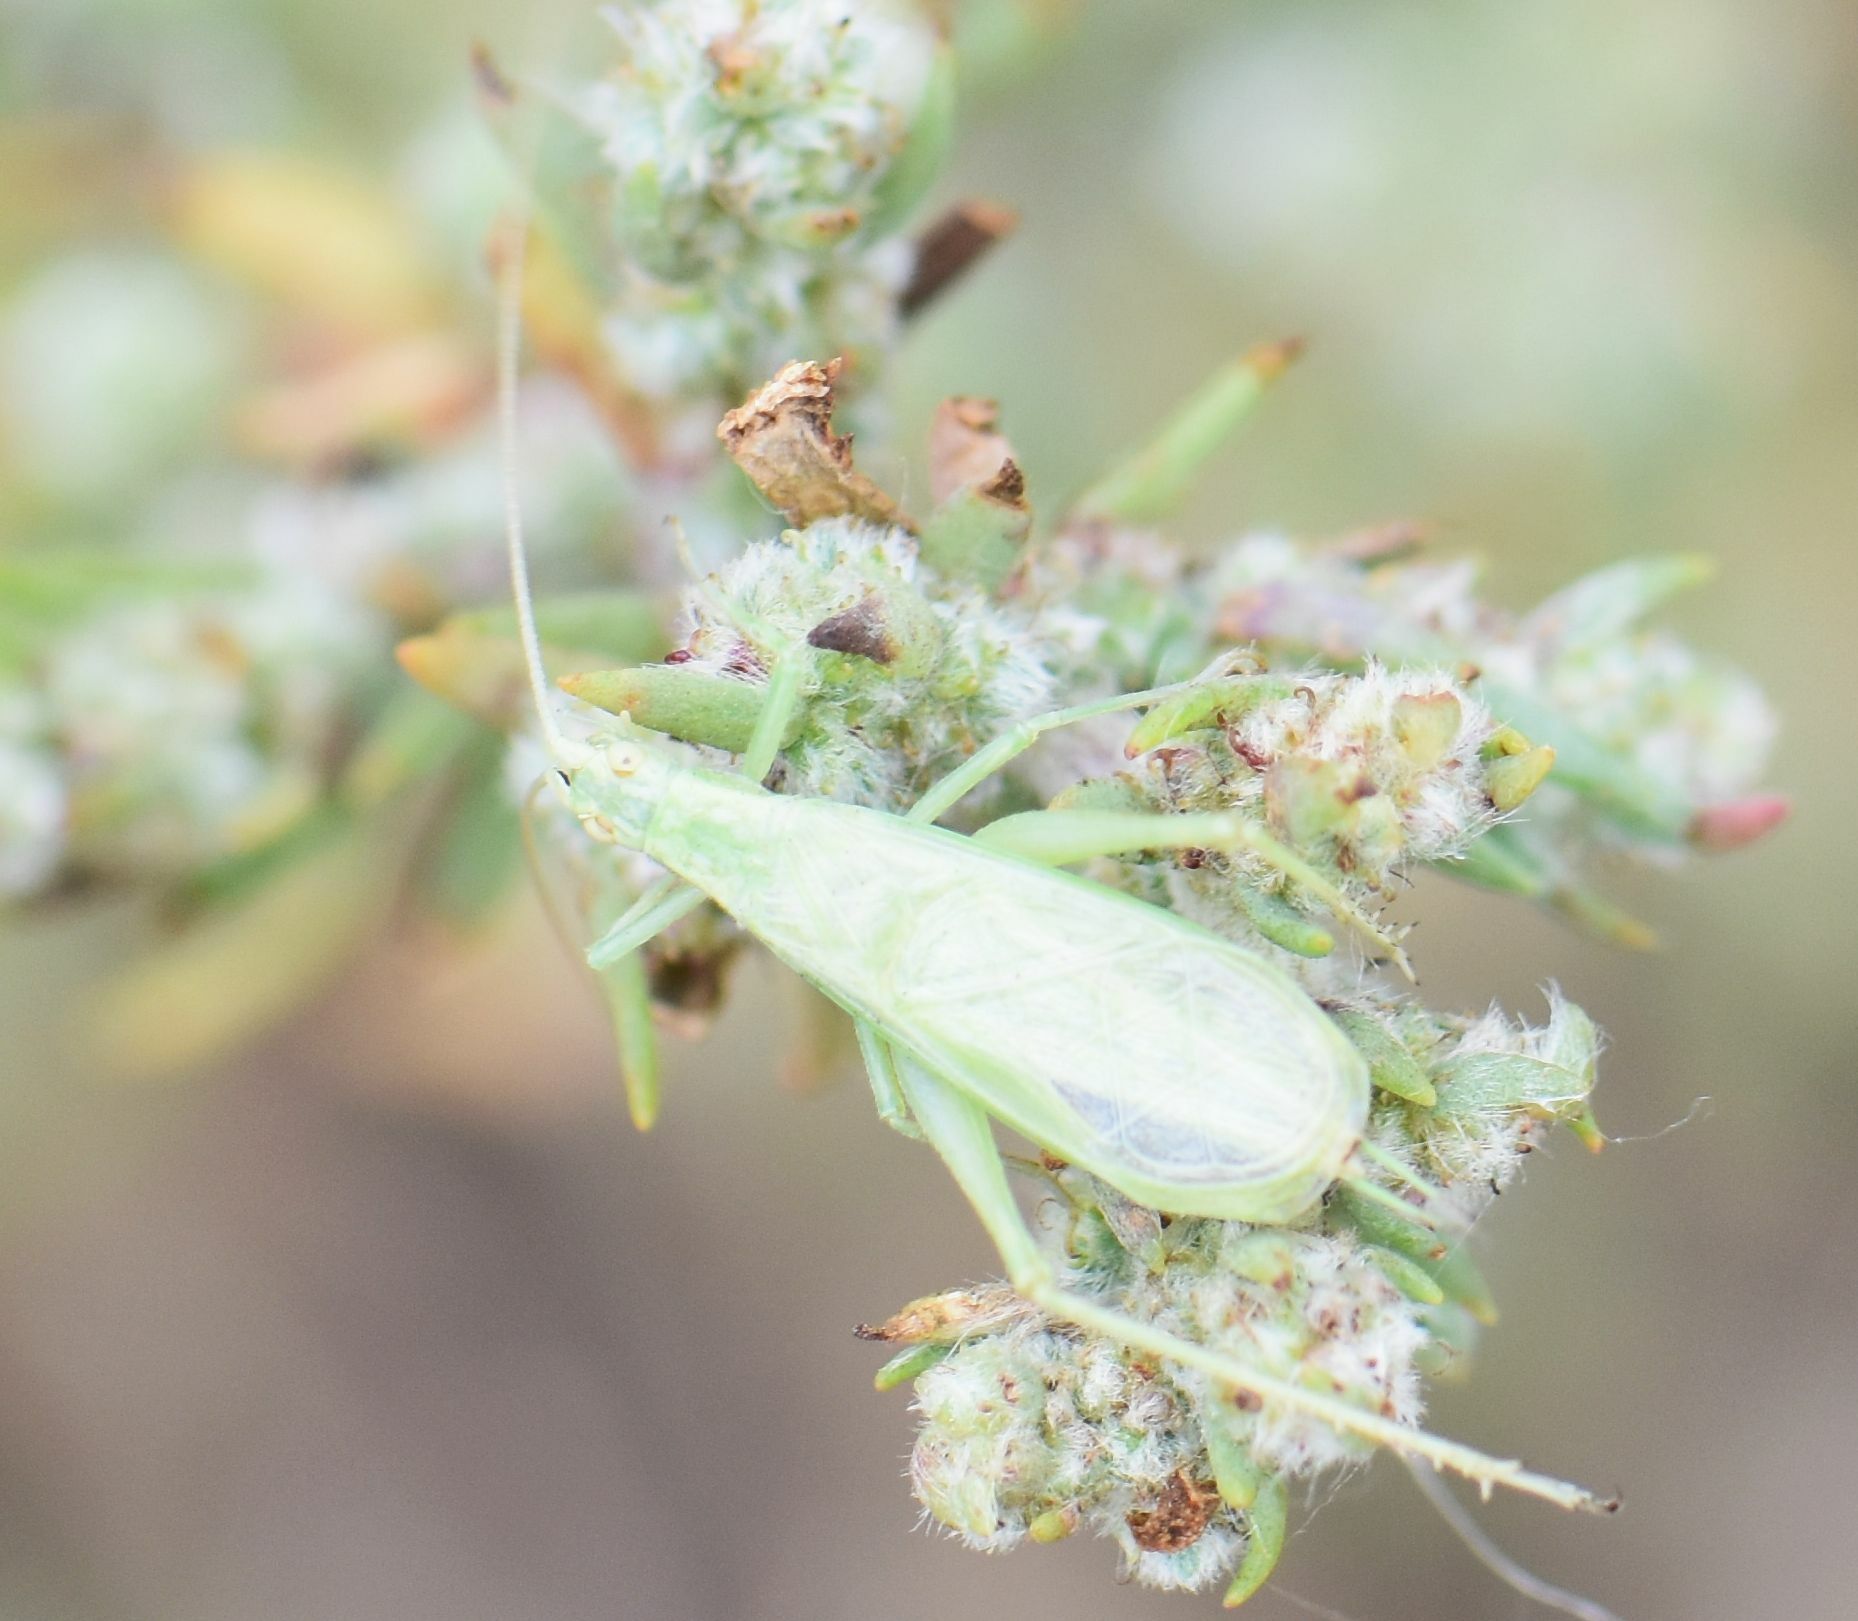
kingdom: Animalia
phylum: Arthropoda
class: Insecta
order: Orthoptera
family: Gryllidae
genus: Oecanthus
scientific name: Oecanthus quadripunctatus
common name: Four-spotted tree cricket
